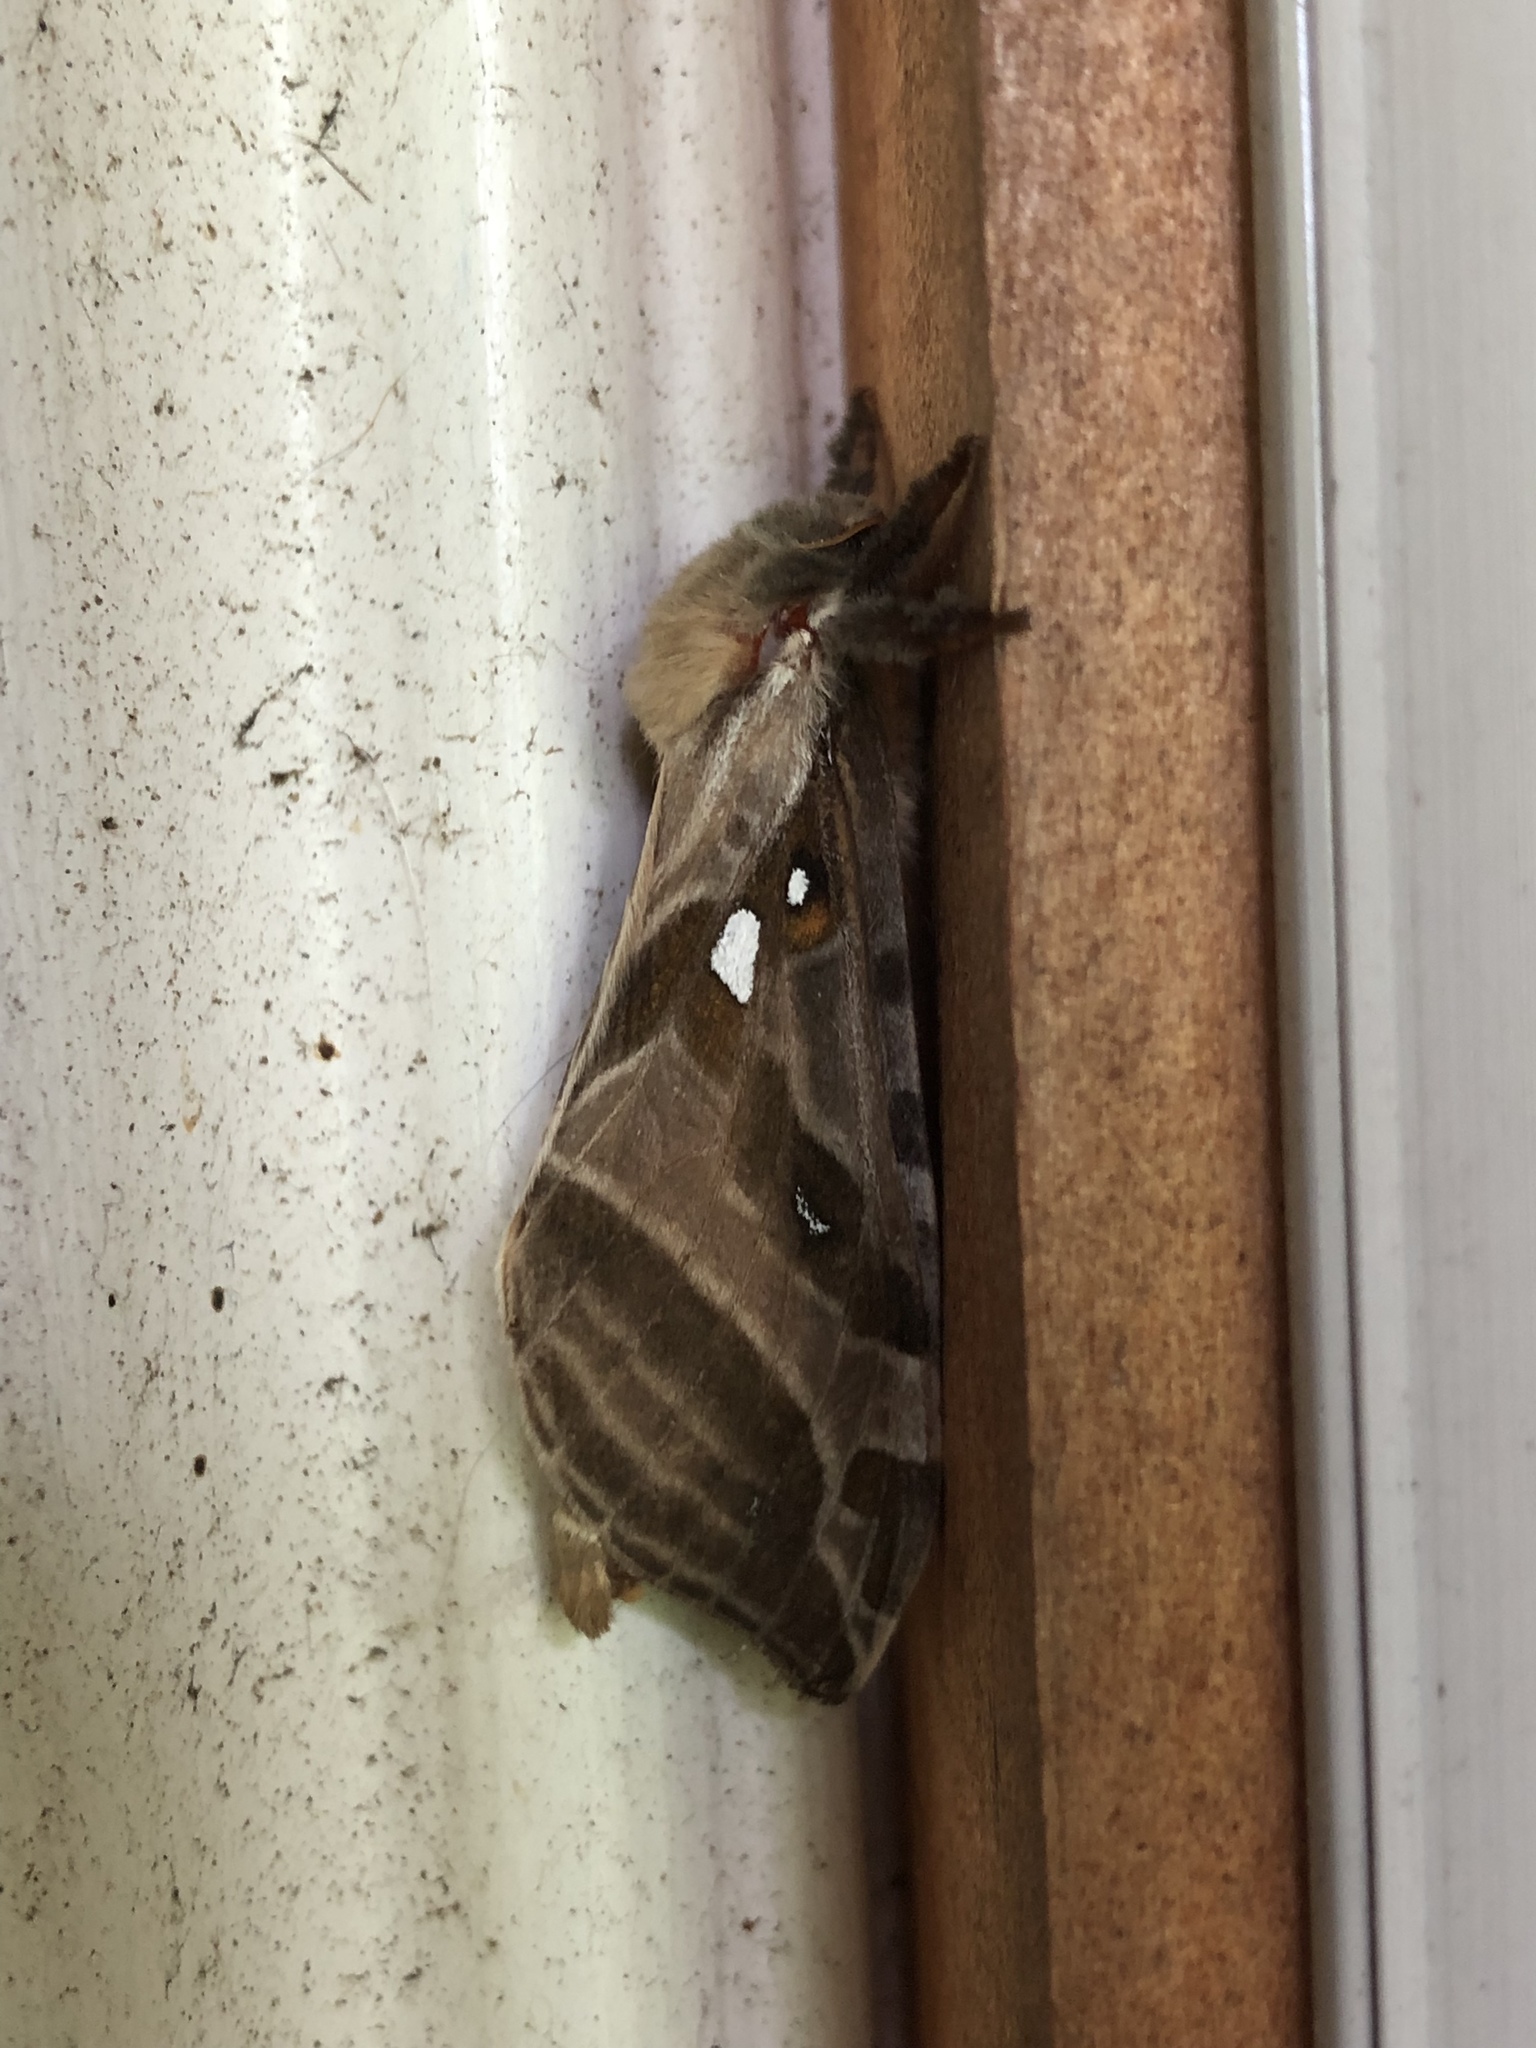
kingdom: Animalia
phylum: Arthropoda
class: Insecta
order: Lepidoptera
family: Hepialidae
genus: Sthenopis
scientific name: Sthenopis argenteomaculatus
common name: Silver-spotted ghost moth
